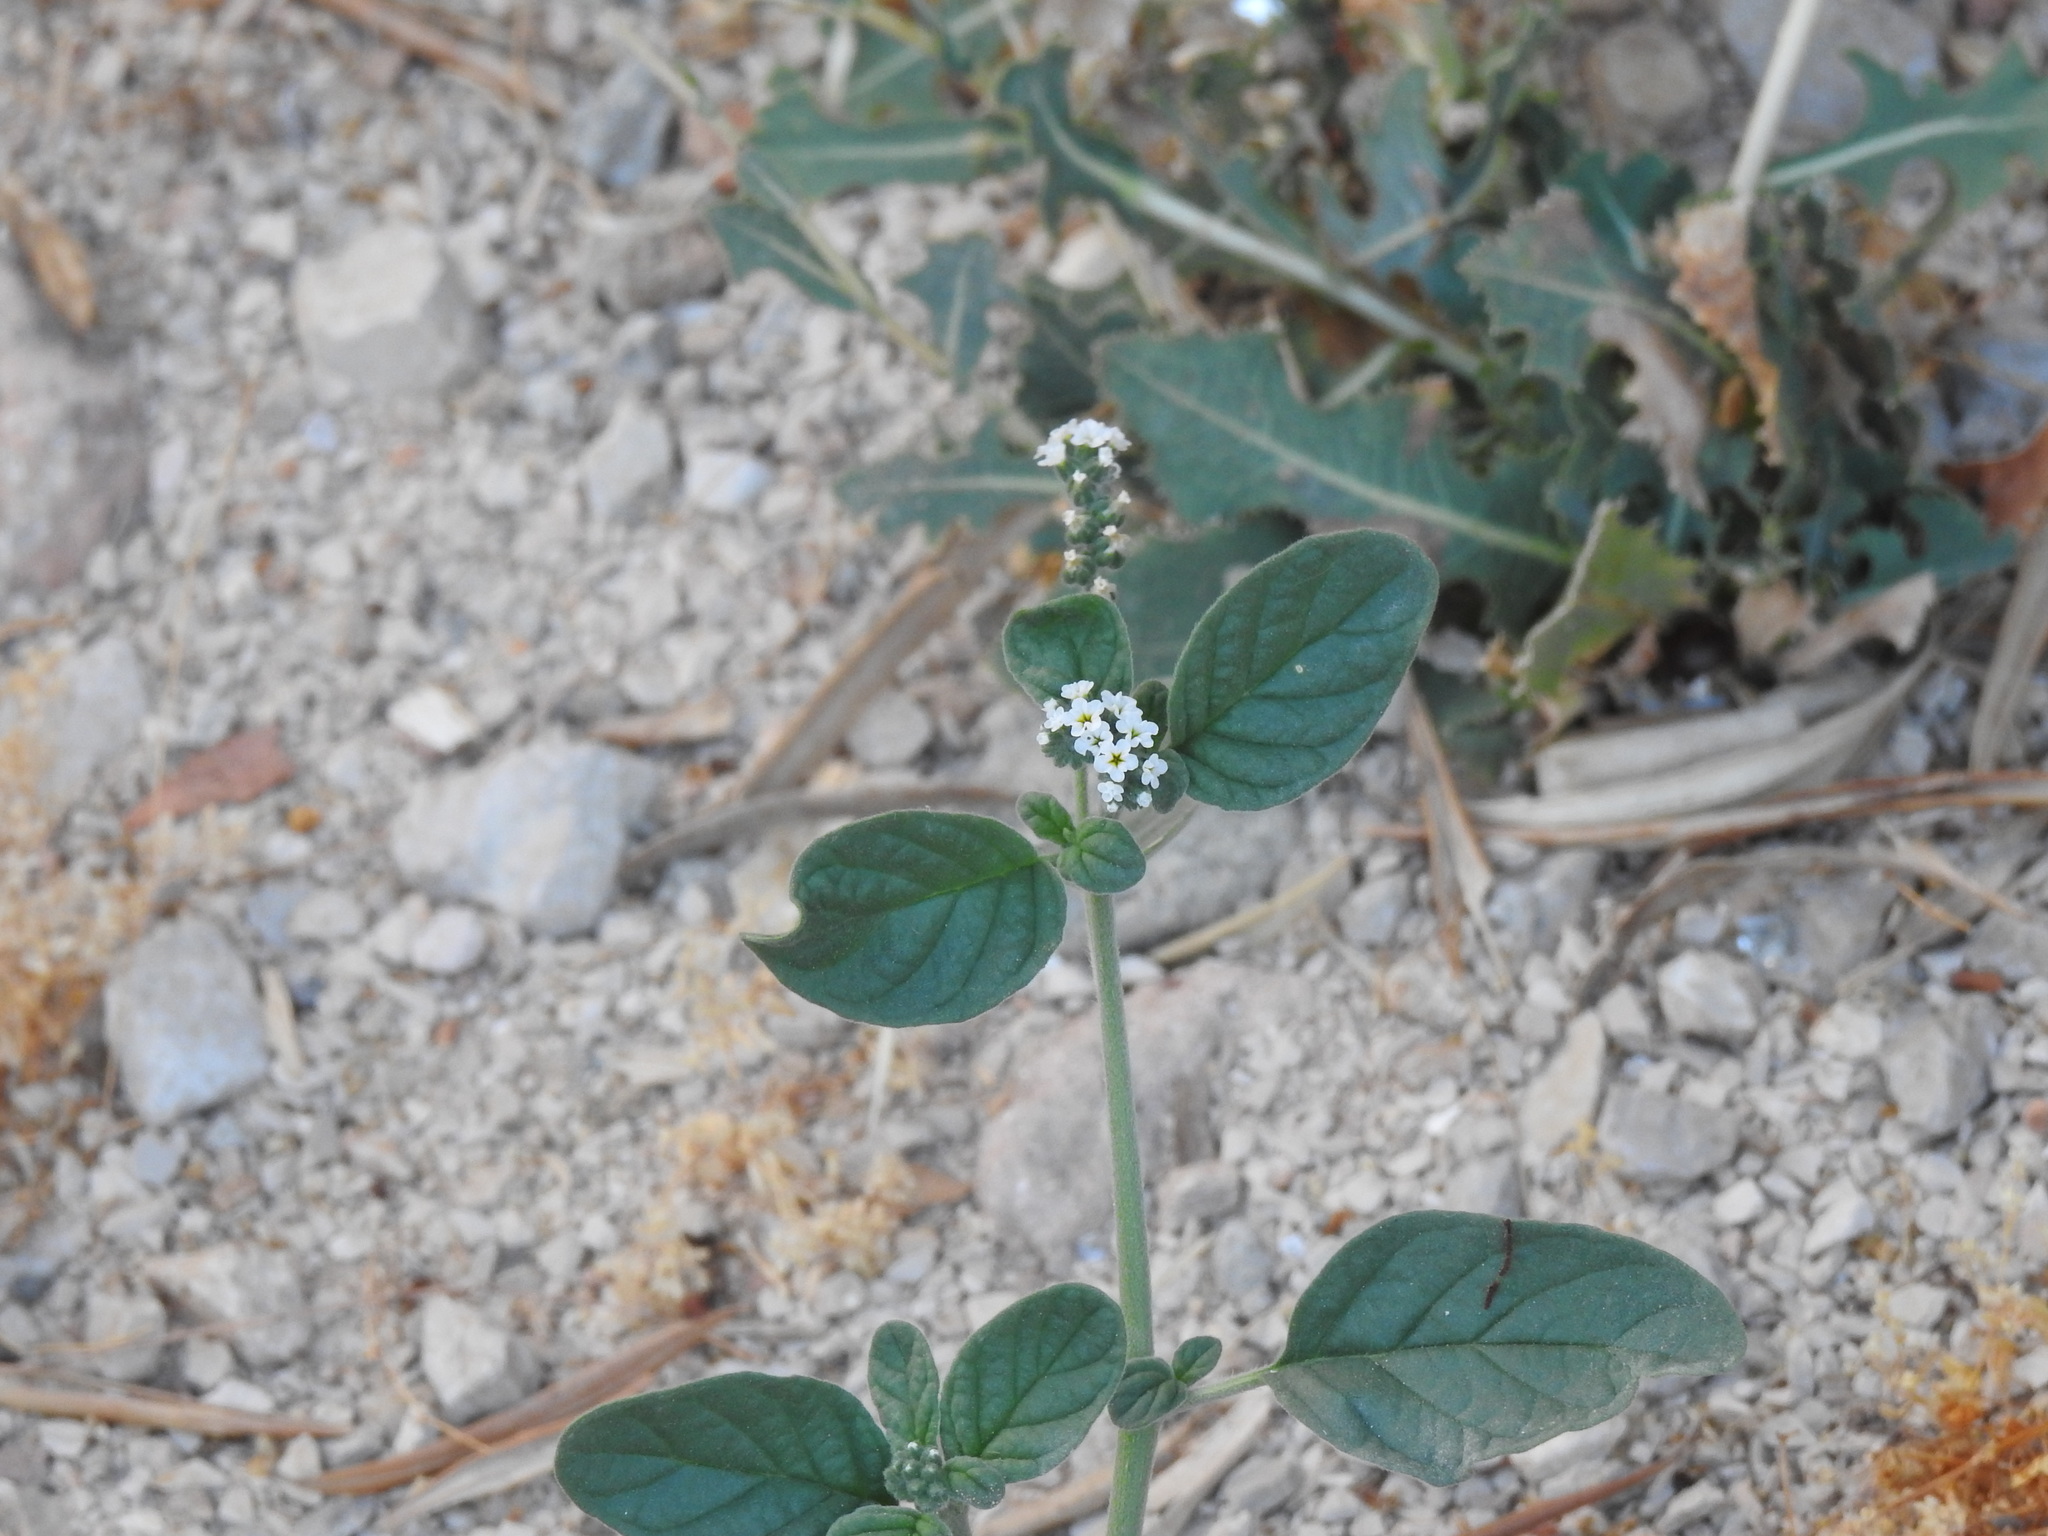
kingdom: Plantae
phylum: Tracheophyta
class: Magnoliopsida
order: Boraginales
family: Heliotropiaceae
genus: Heliotropium
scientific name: Heliotropium europaeum
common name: European heliotrope
